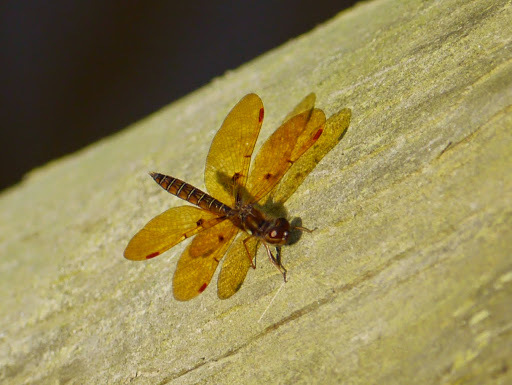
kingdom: Animalia
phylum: Arthropoda
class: Insecta
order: Odonata
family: Libellulidae
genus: Perithemis
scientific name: Perithemis tenera
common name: Eastern amberwing
